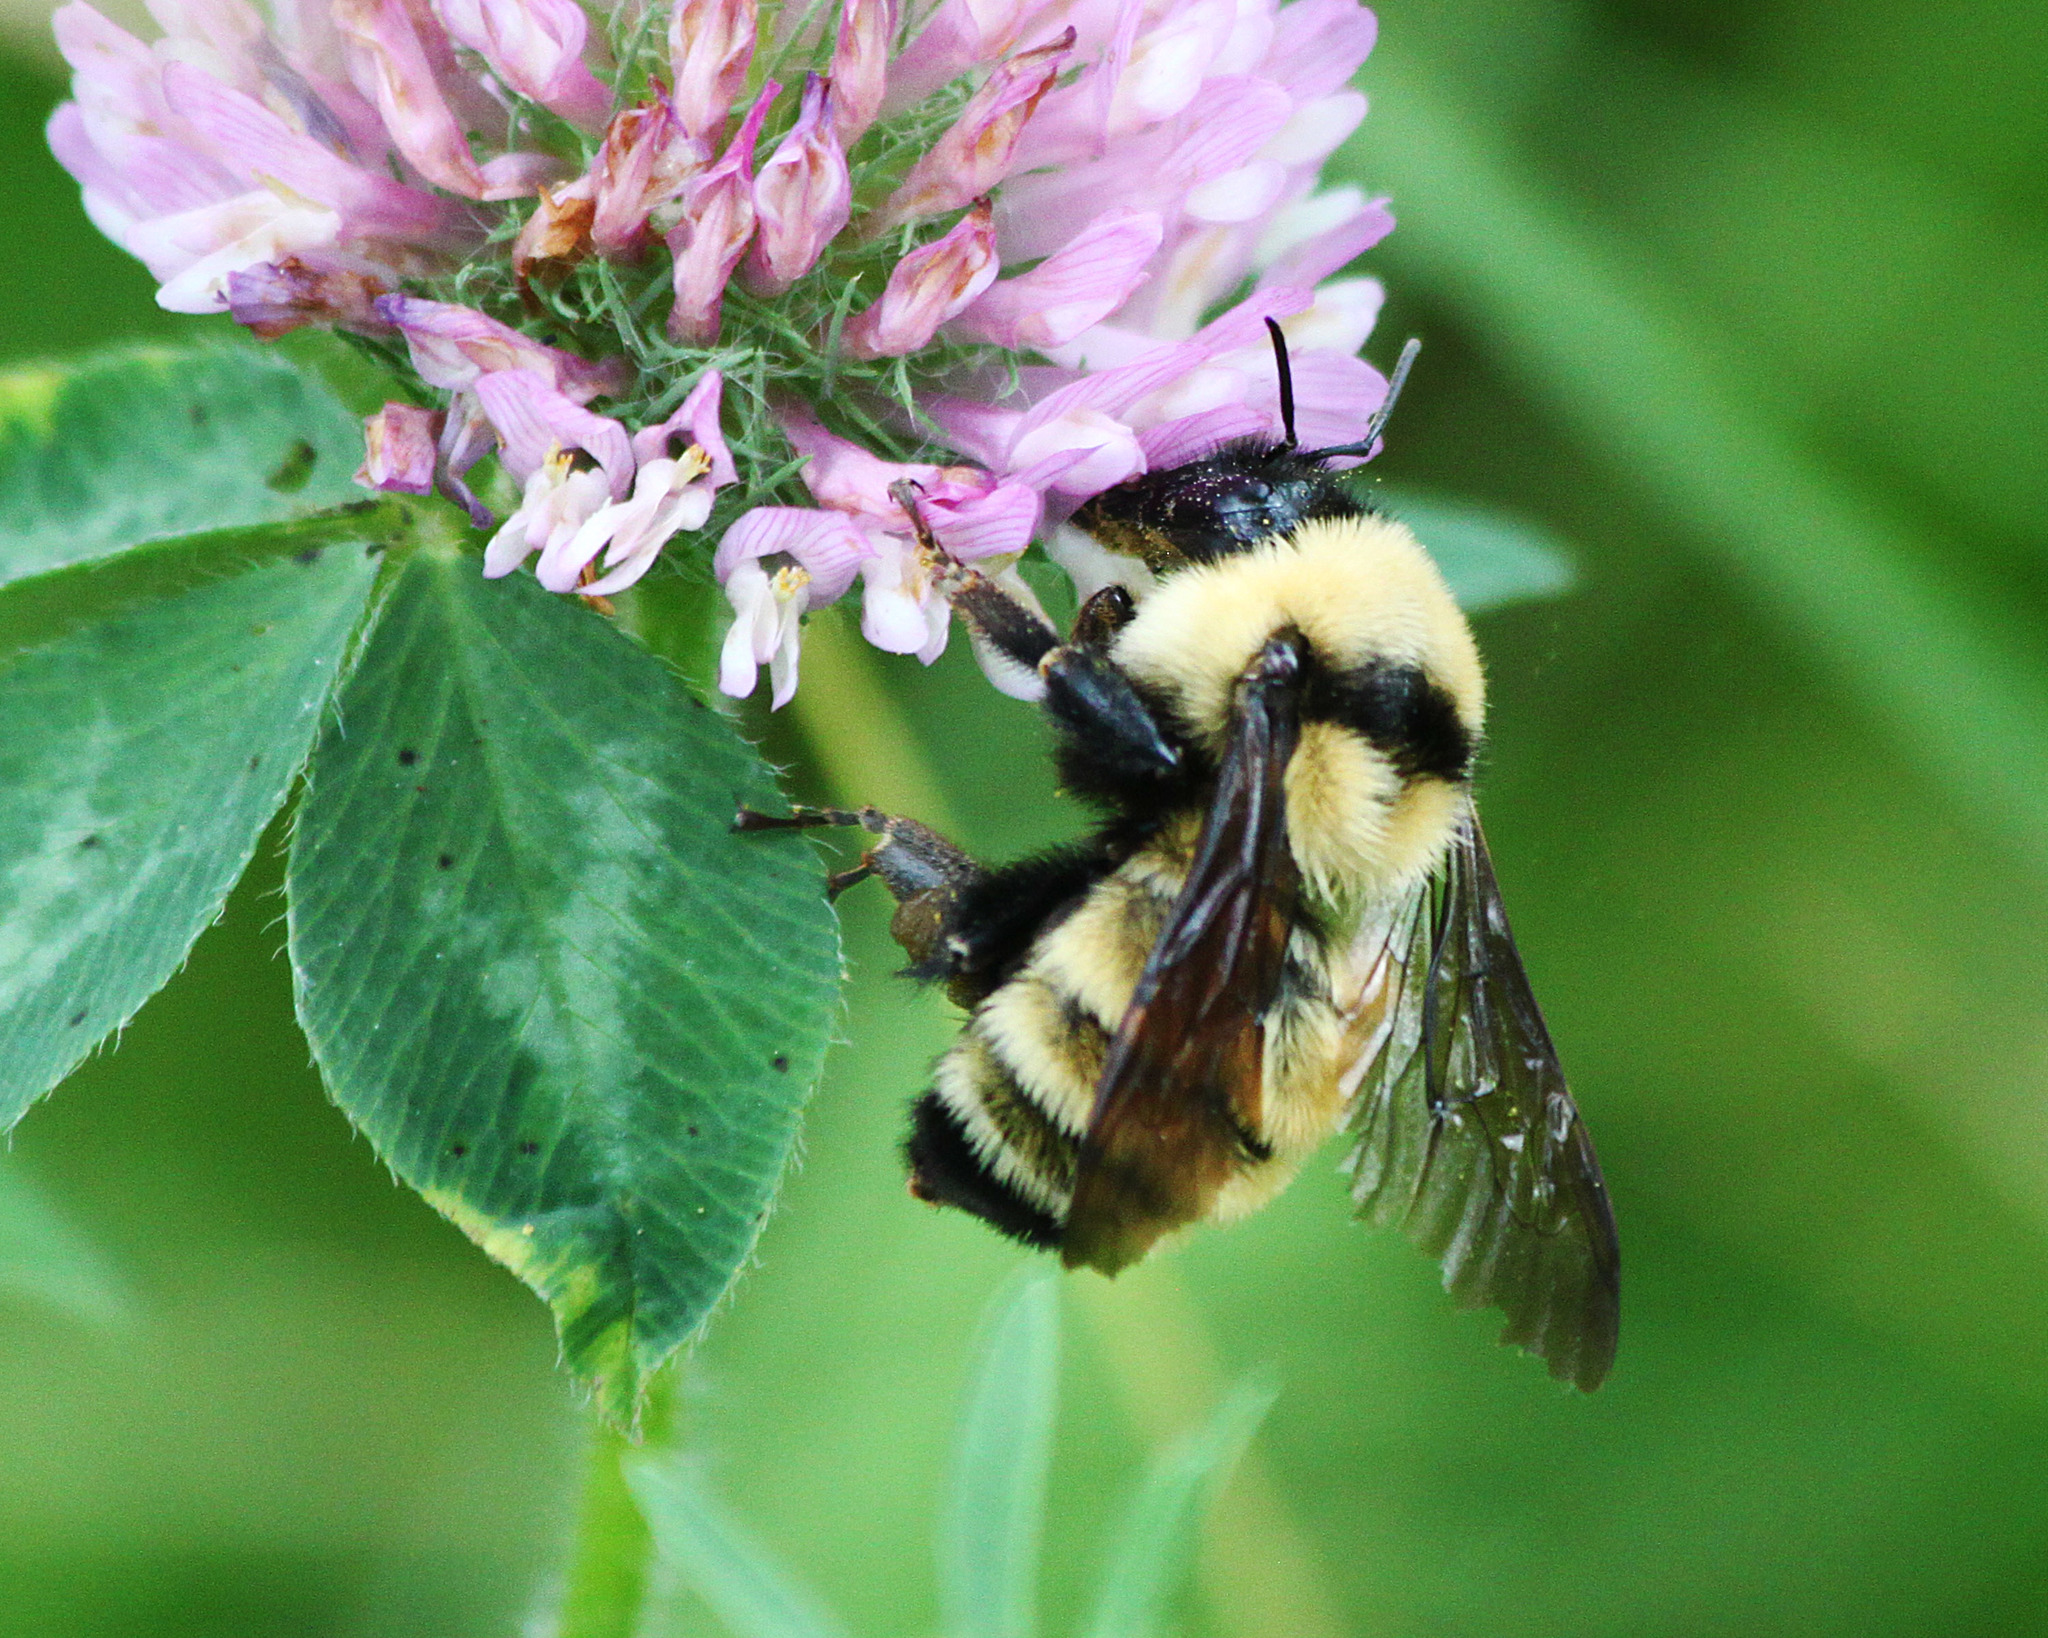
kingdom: Animalia
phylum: Arthropoda
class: Insecta
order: Hymenoptera
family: Apidae
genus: Bombus
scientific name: Bombus fervidus
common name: Yellow bumble bee
